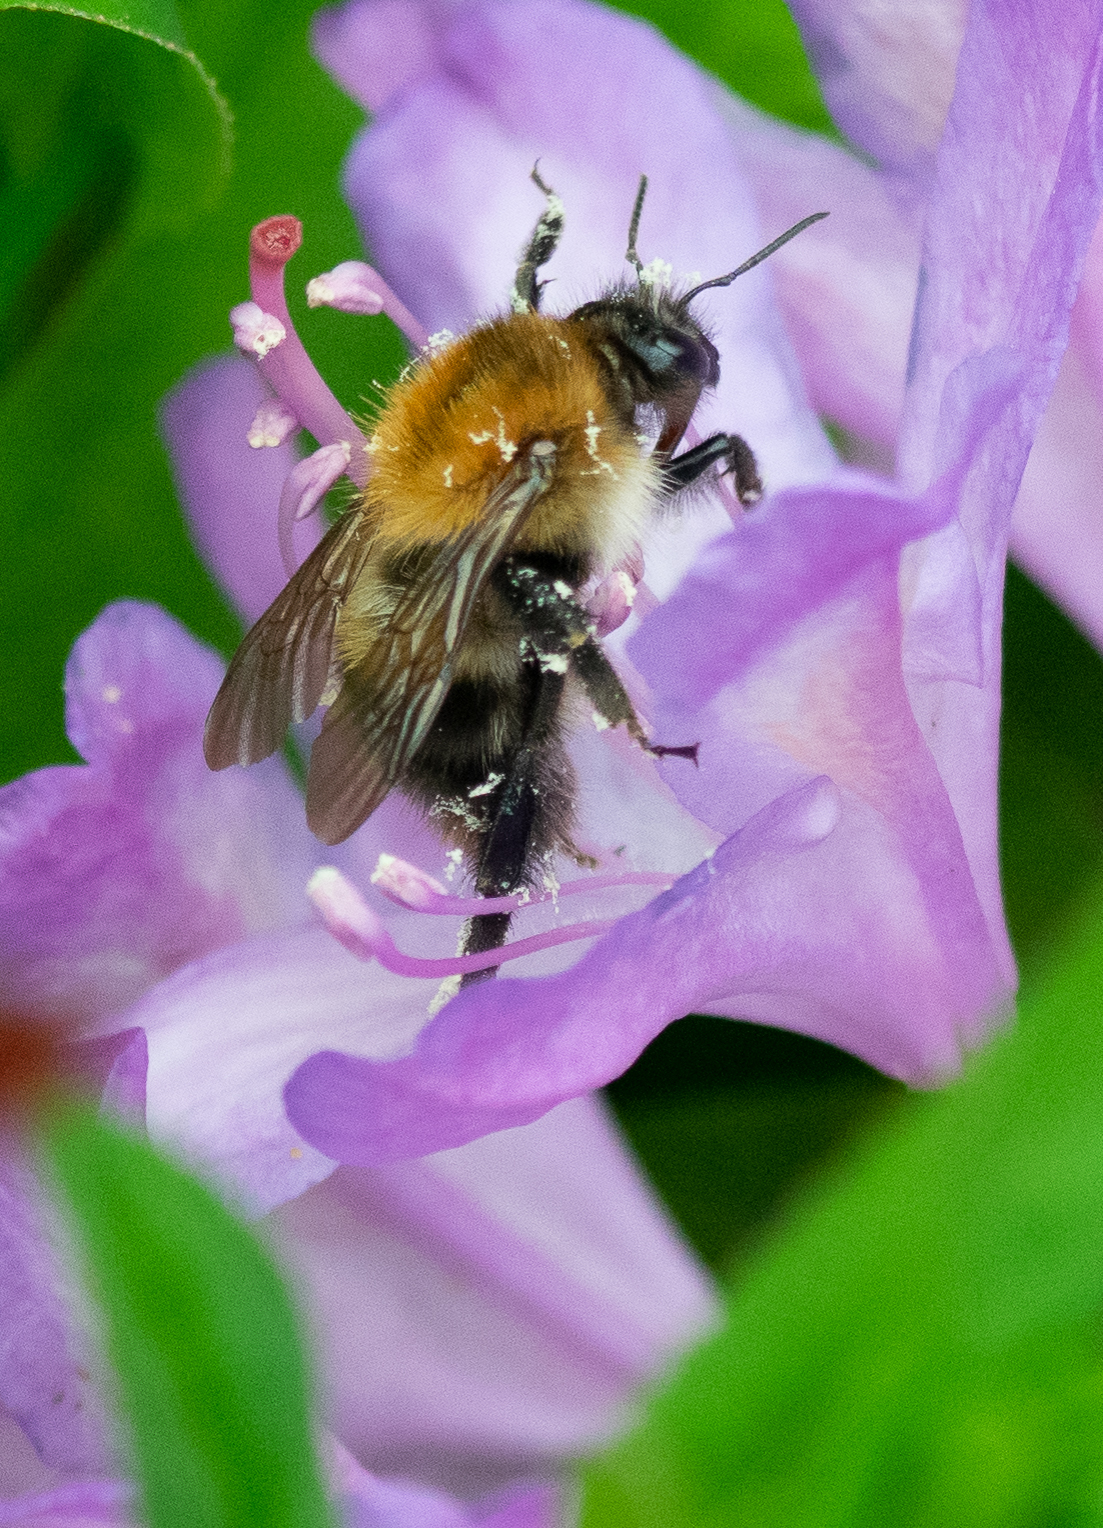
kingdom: Animalia
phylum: Arthropoda
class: Insecta
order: Hymenoptera
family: Apidae
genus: Bombus
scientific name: Bombus pascuorum
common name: Common carder bee
